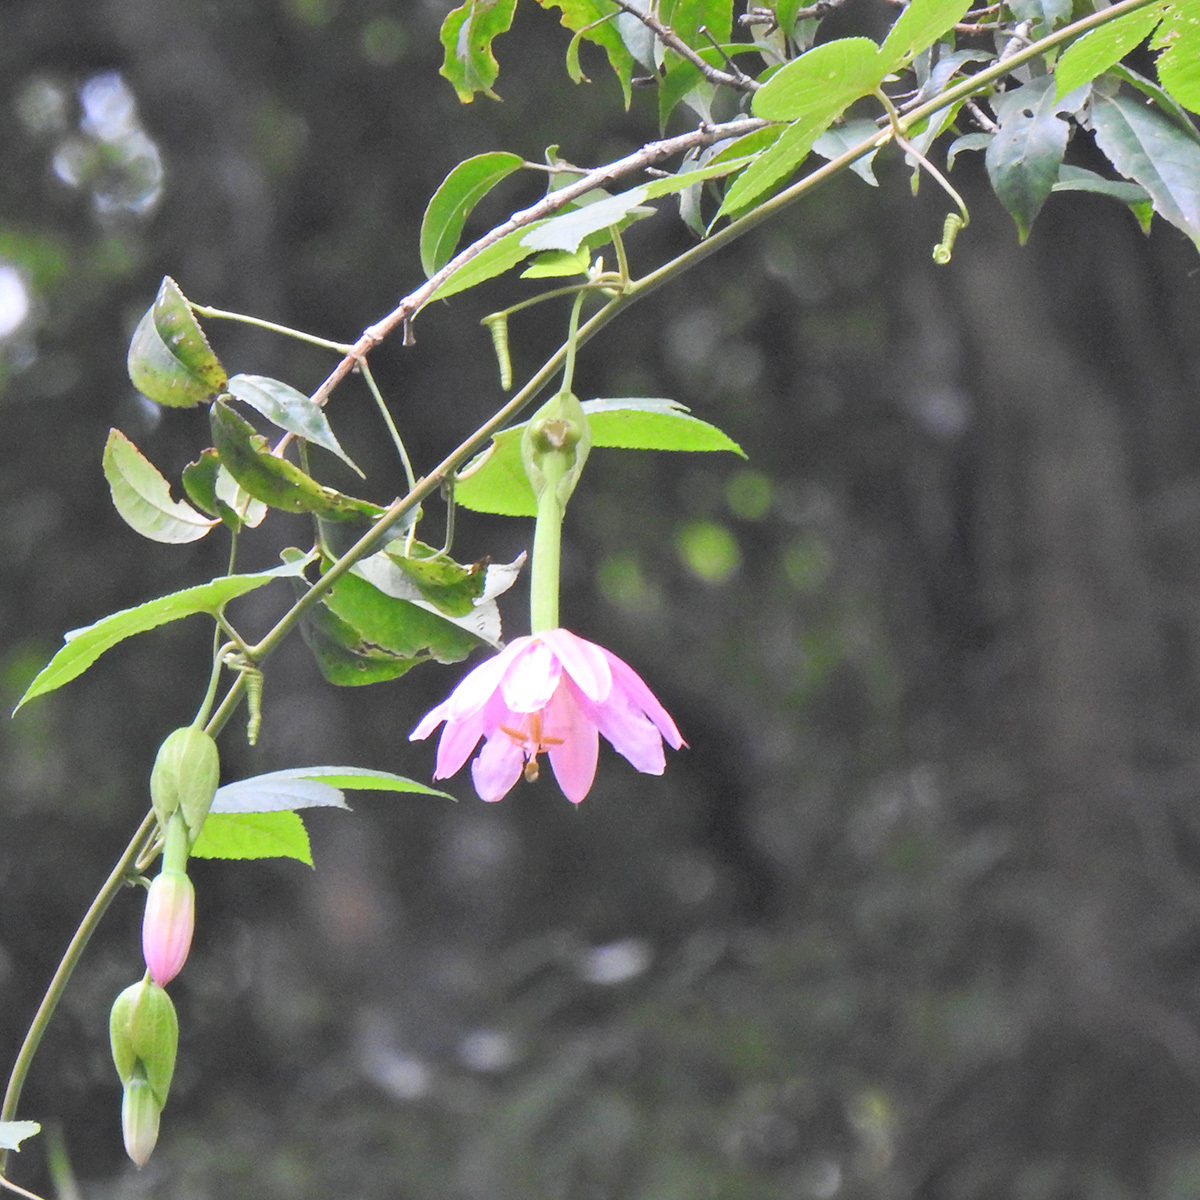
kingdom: Plantae
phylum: Tracheophyta
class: Magnoliopsida
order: Malpighiales
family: Passifloraceae
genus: Passiflora
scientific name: Passiflora tarminiana
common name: Banana poka
